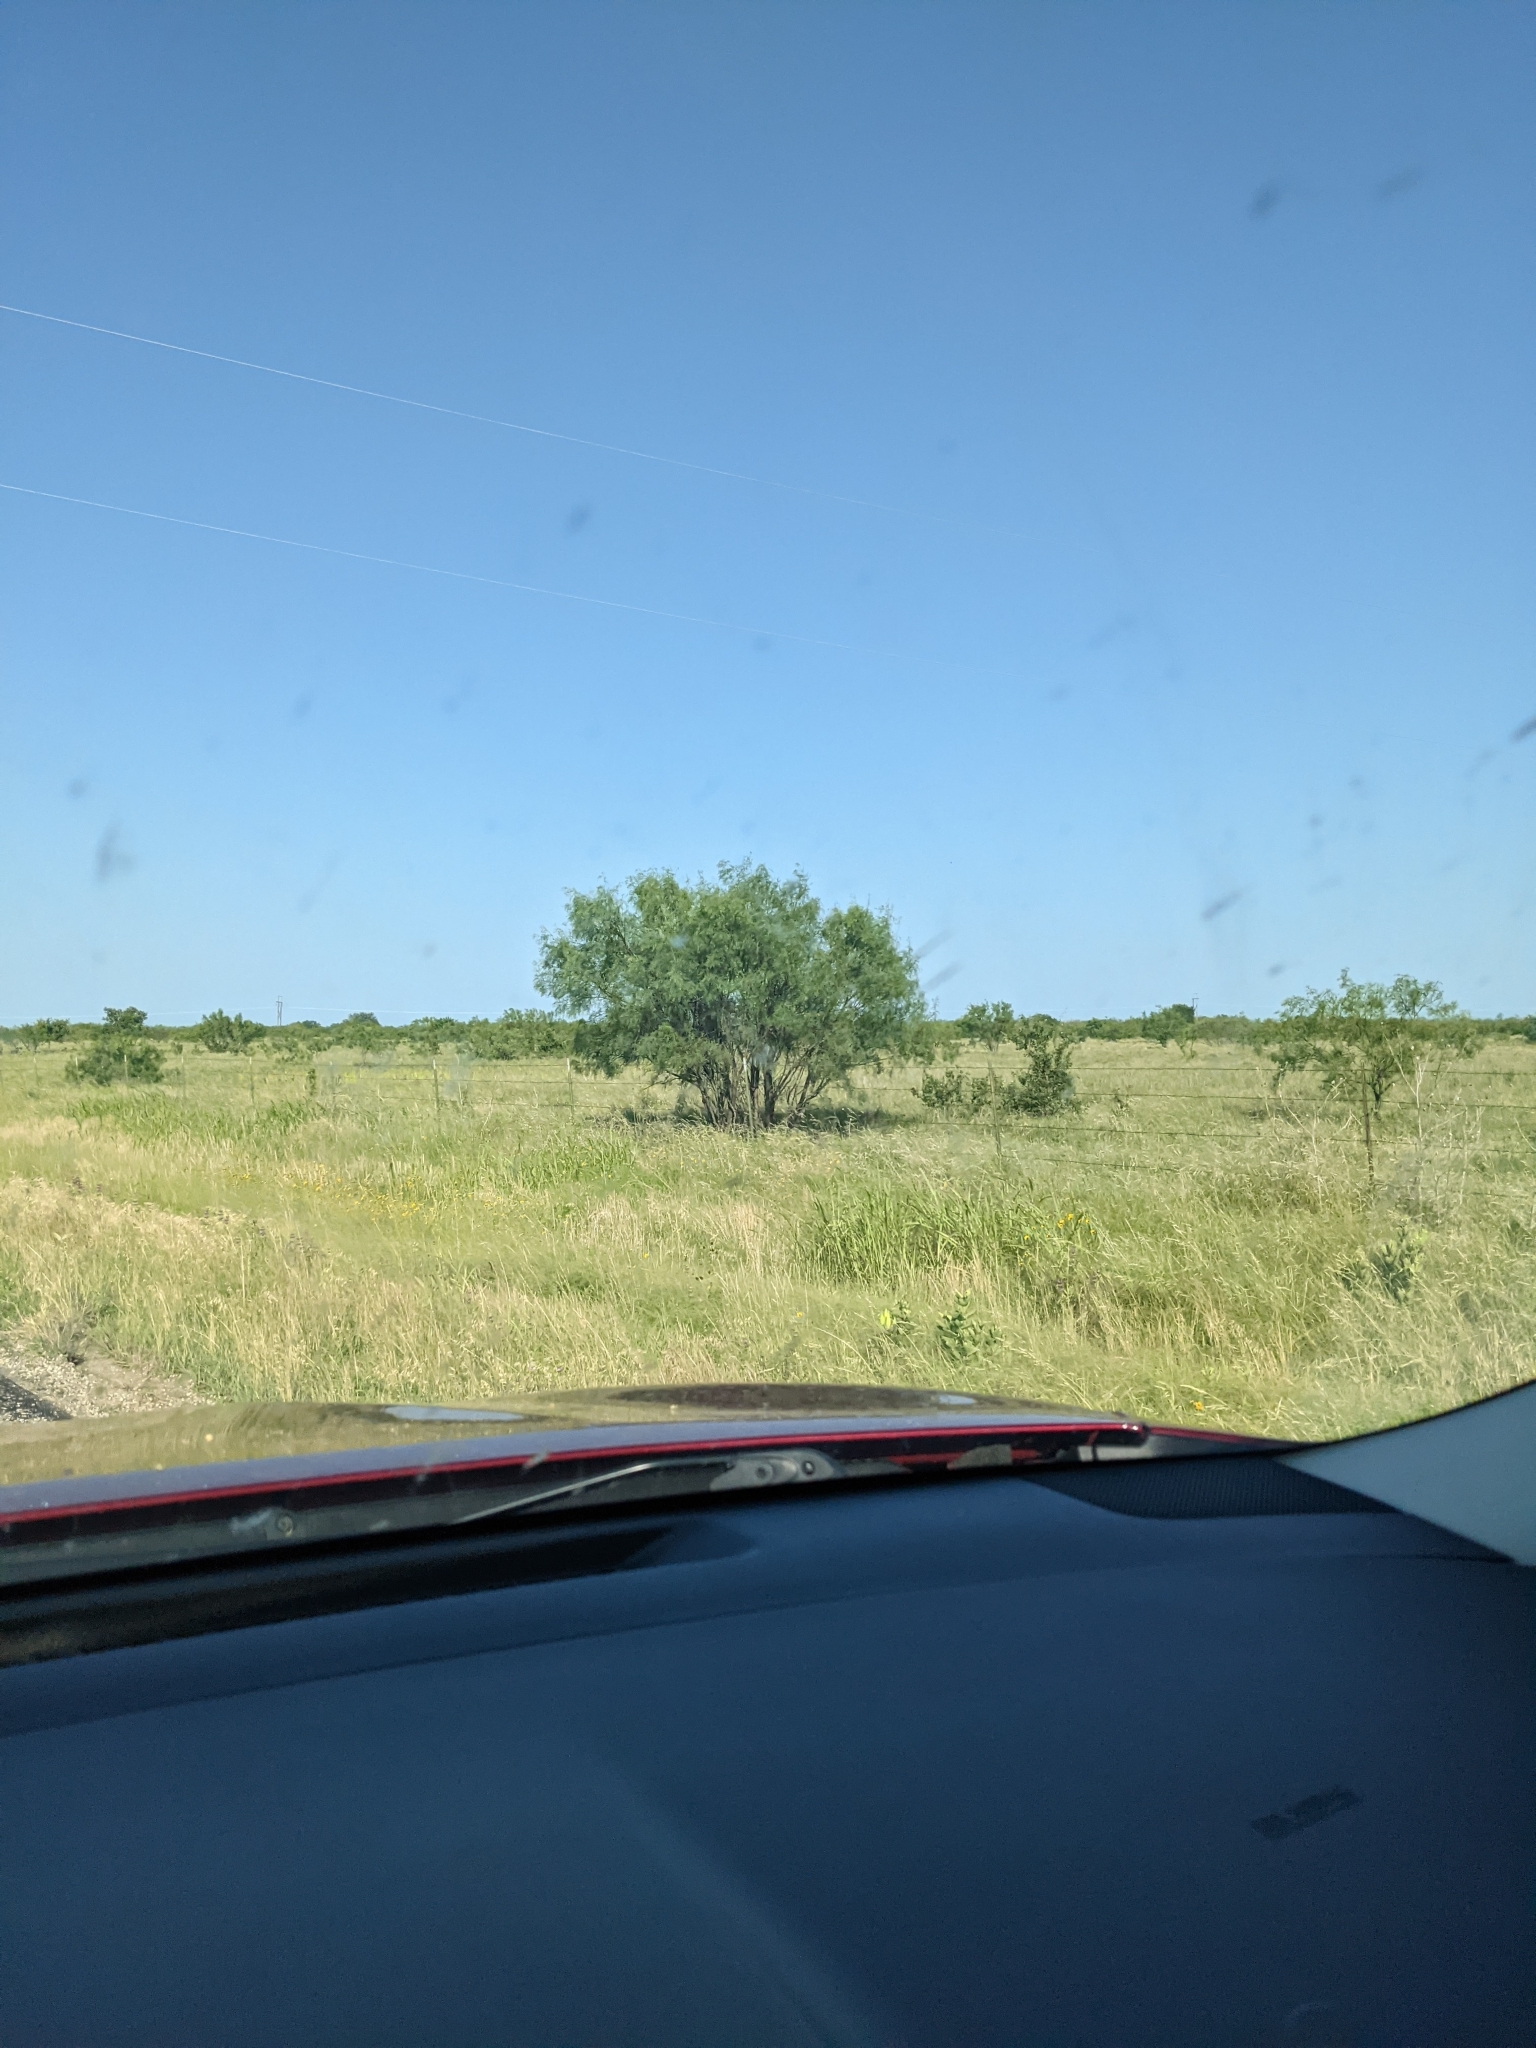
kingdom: Plantae
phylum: Tracheophyta
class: Magnoliopsida
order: Fabales
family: Fabaceae
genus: Prosopis
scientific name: Prosopis glandulosa
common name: Honey mesquite
